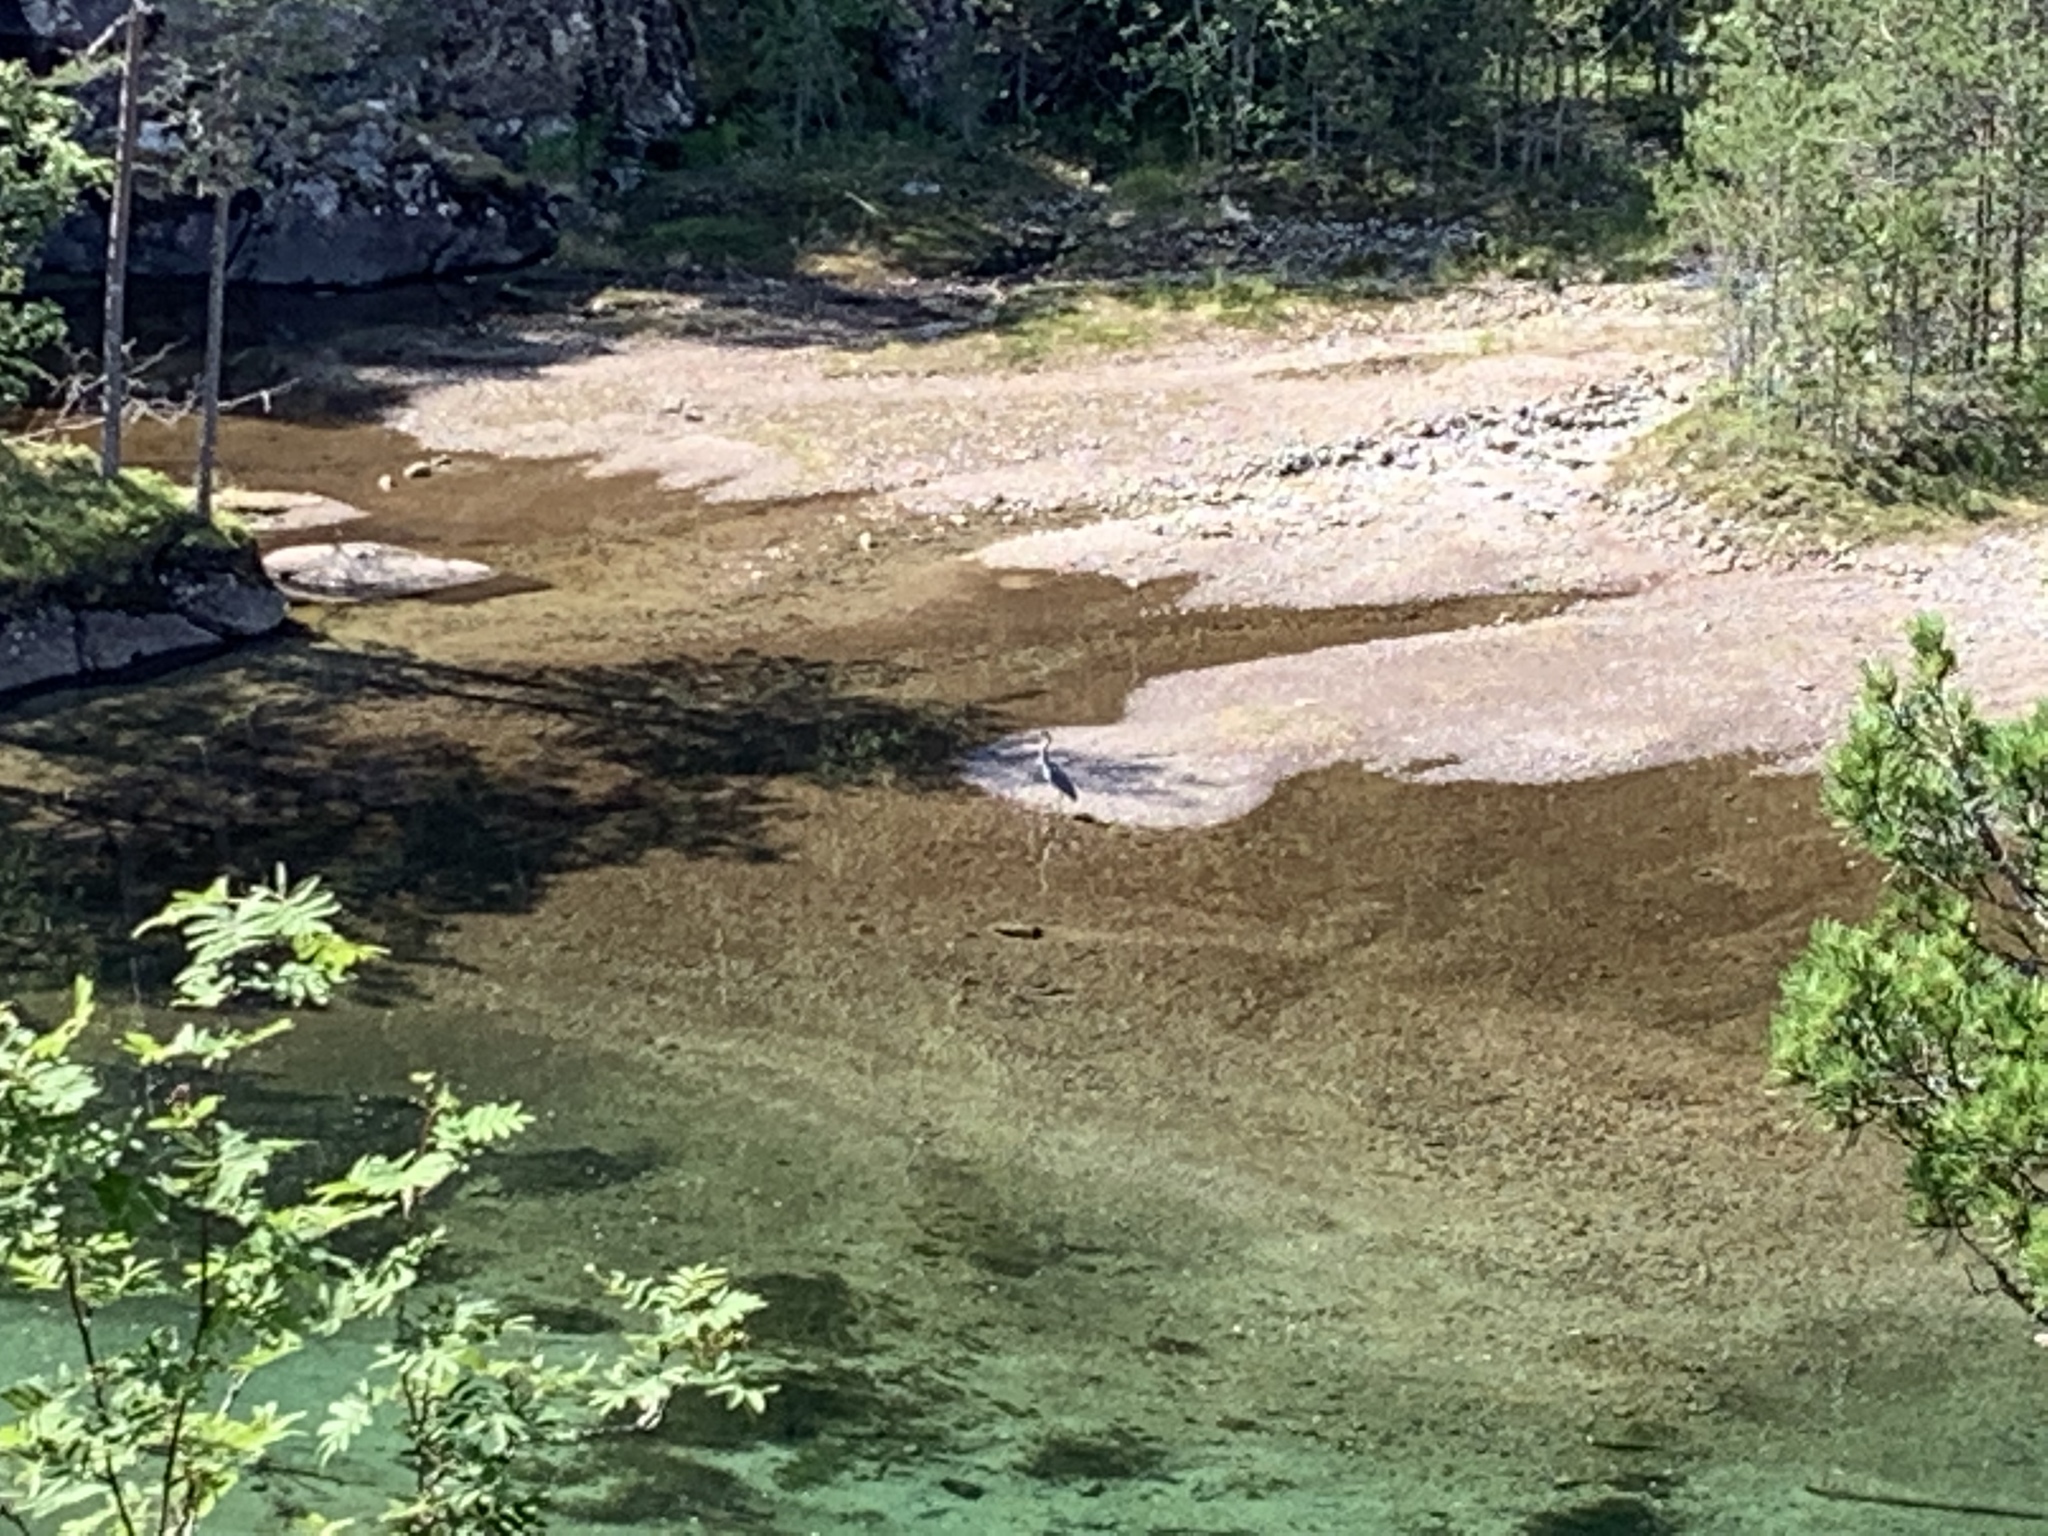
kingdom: Animalia
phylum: Chordata
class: Aves
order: Pelecaniformes
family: Ardeidae
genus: Ardea
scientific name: Ardea cinerea
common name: Grey heron
